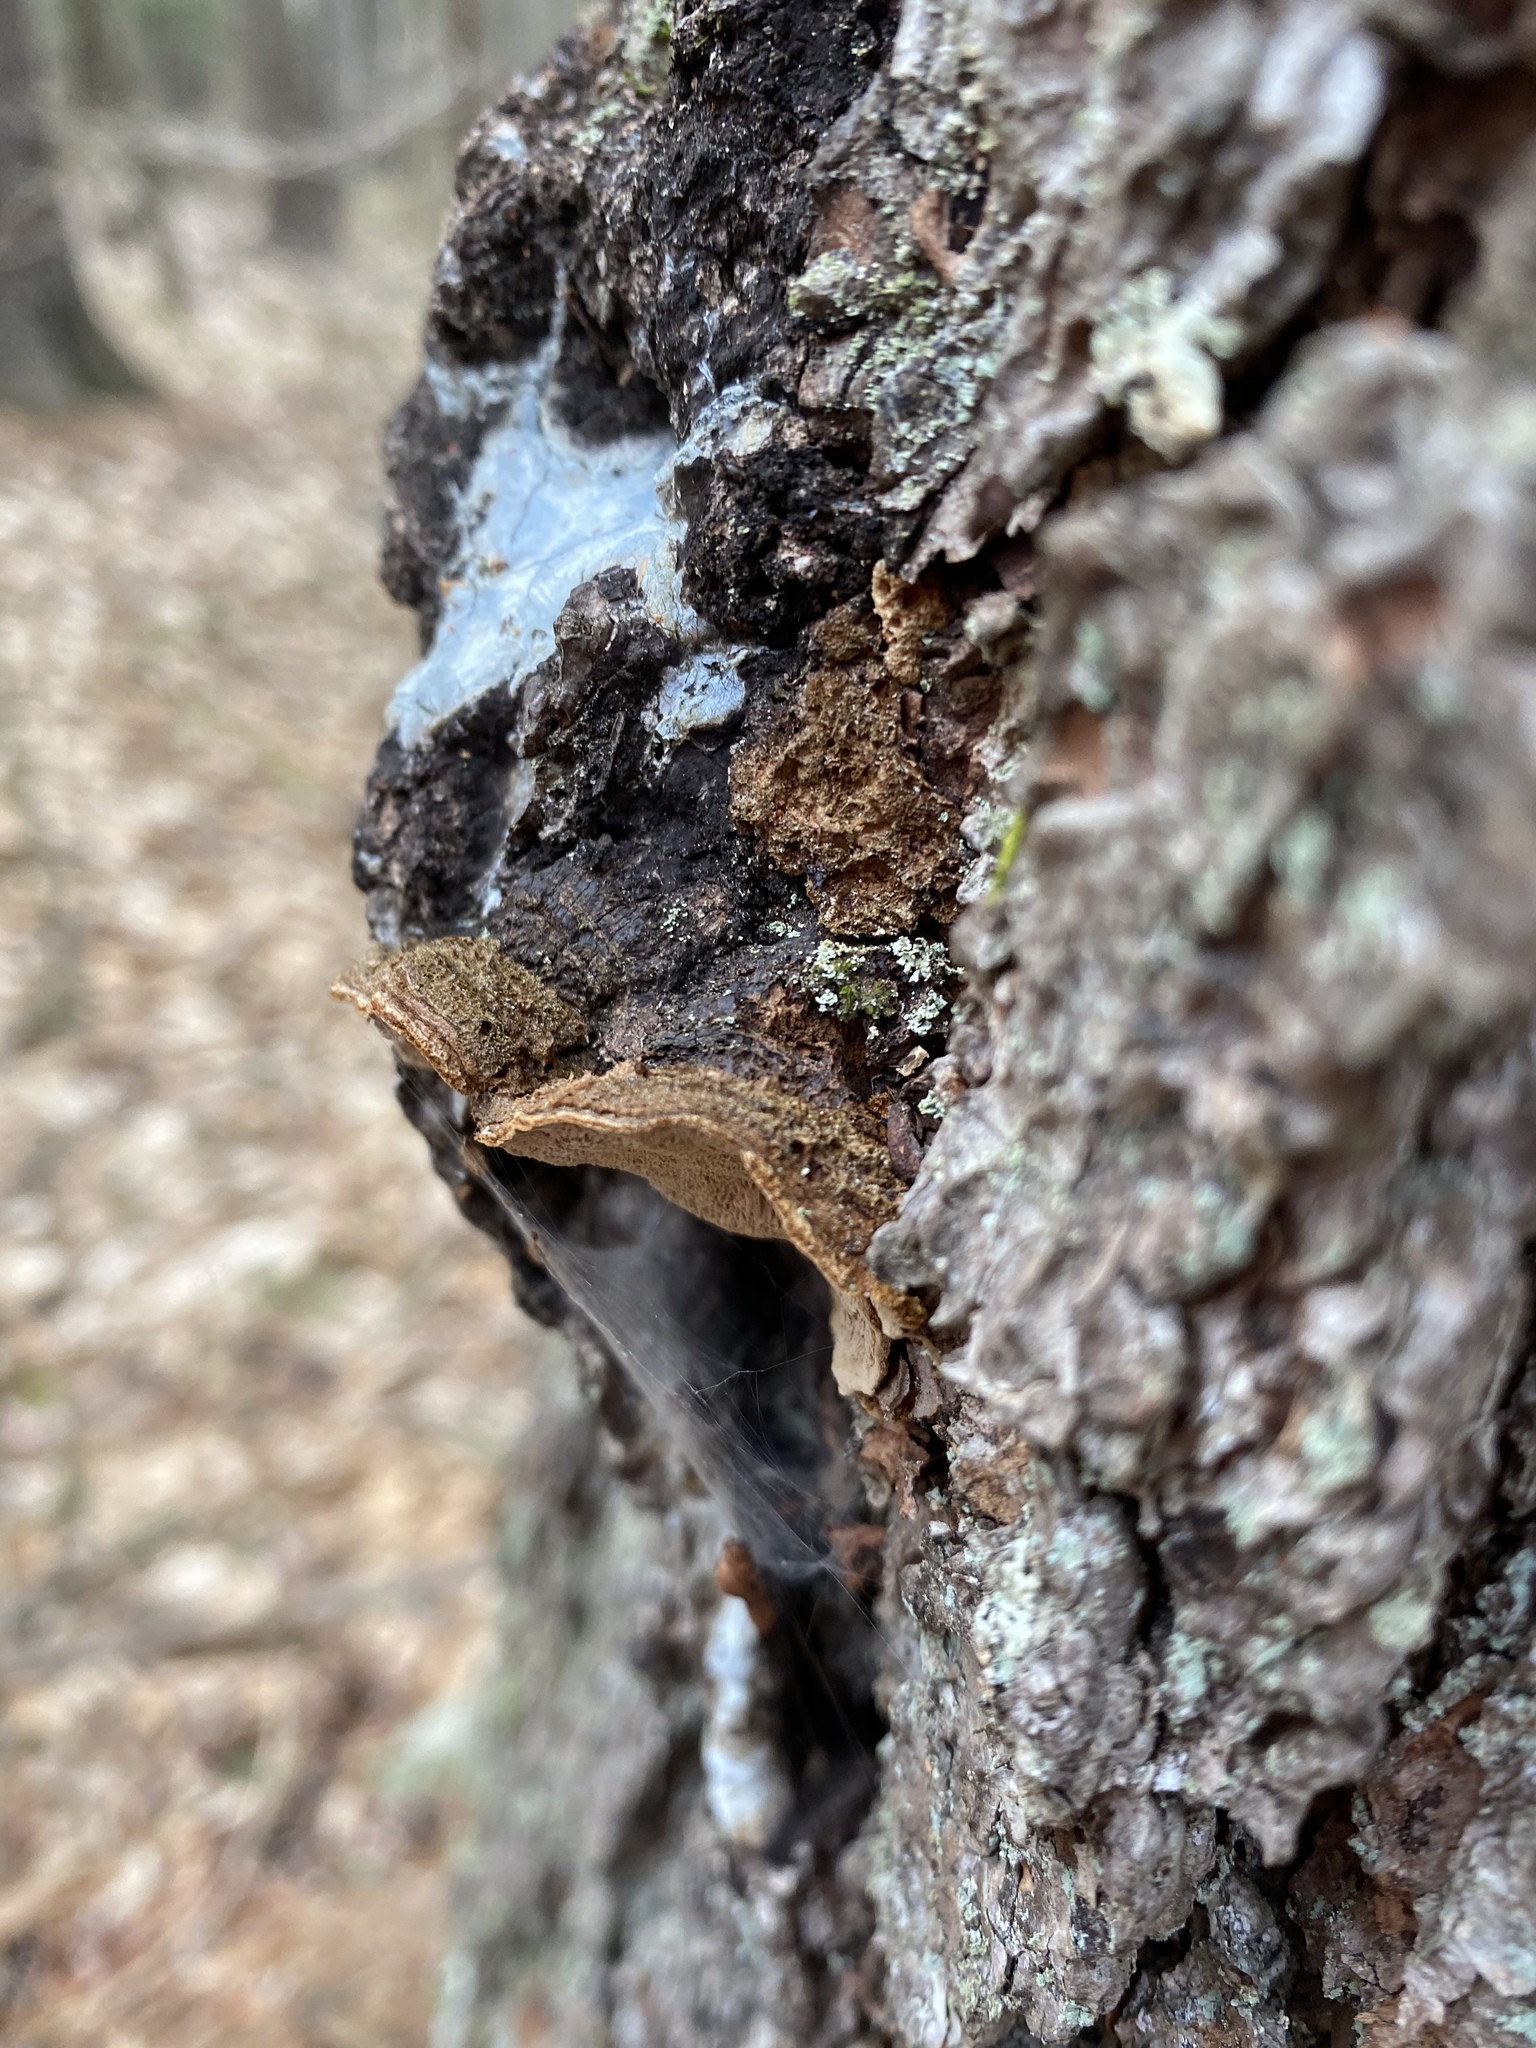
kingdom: Fungi
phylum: Basidiomycota
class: Agaricomycetes
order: Hymenochaetales
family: Hymenochaetaceae
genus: Porodaedalea
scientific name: Porodaedalea pini
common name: Pine bracket
